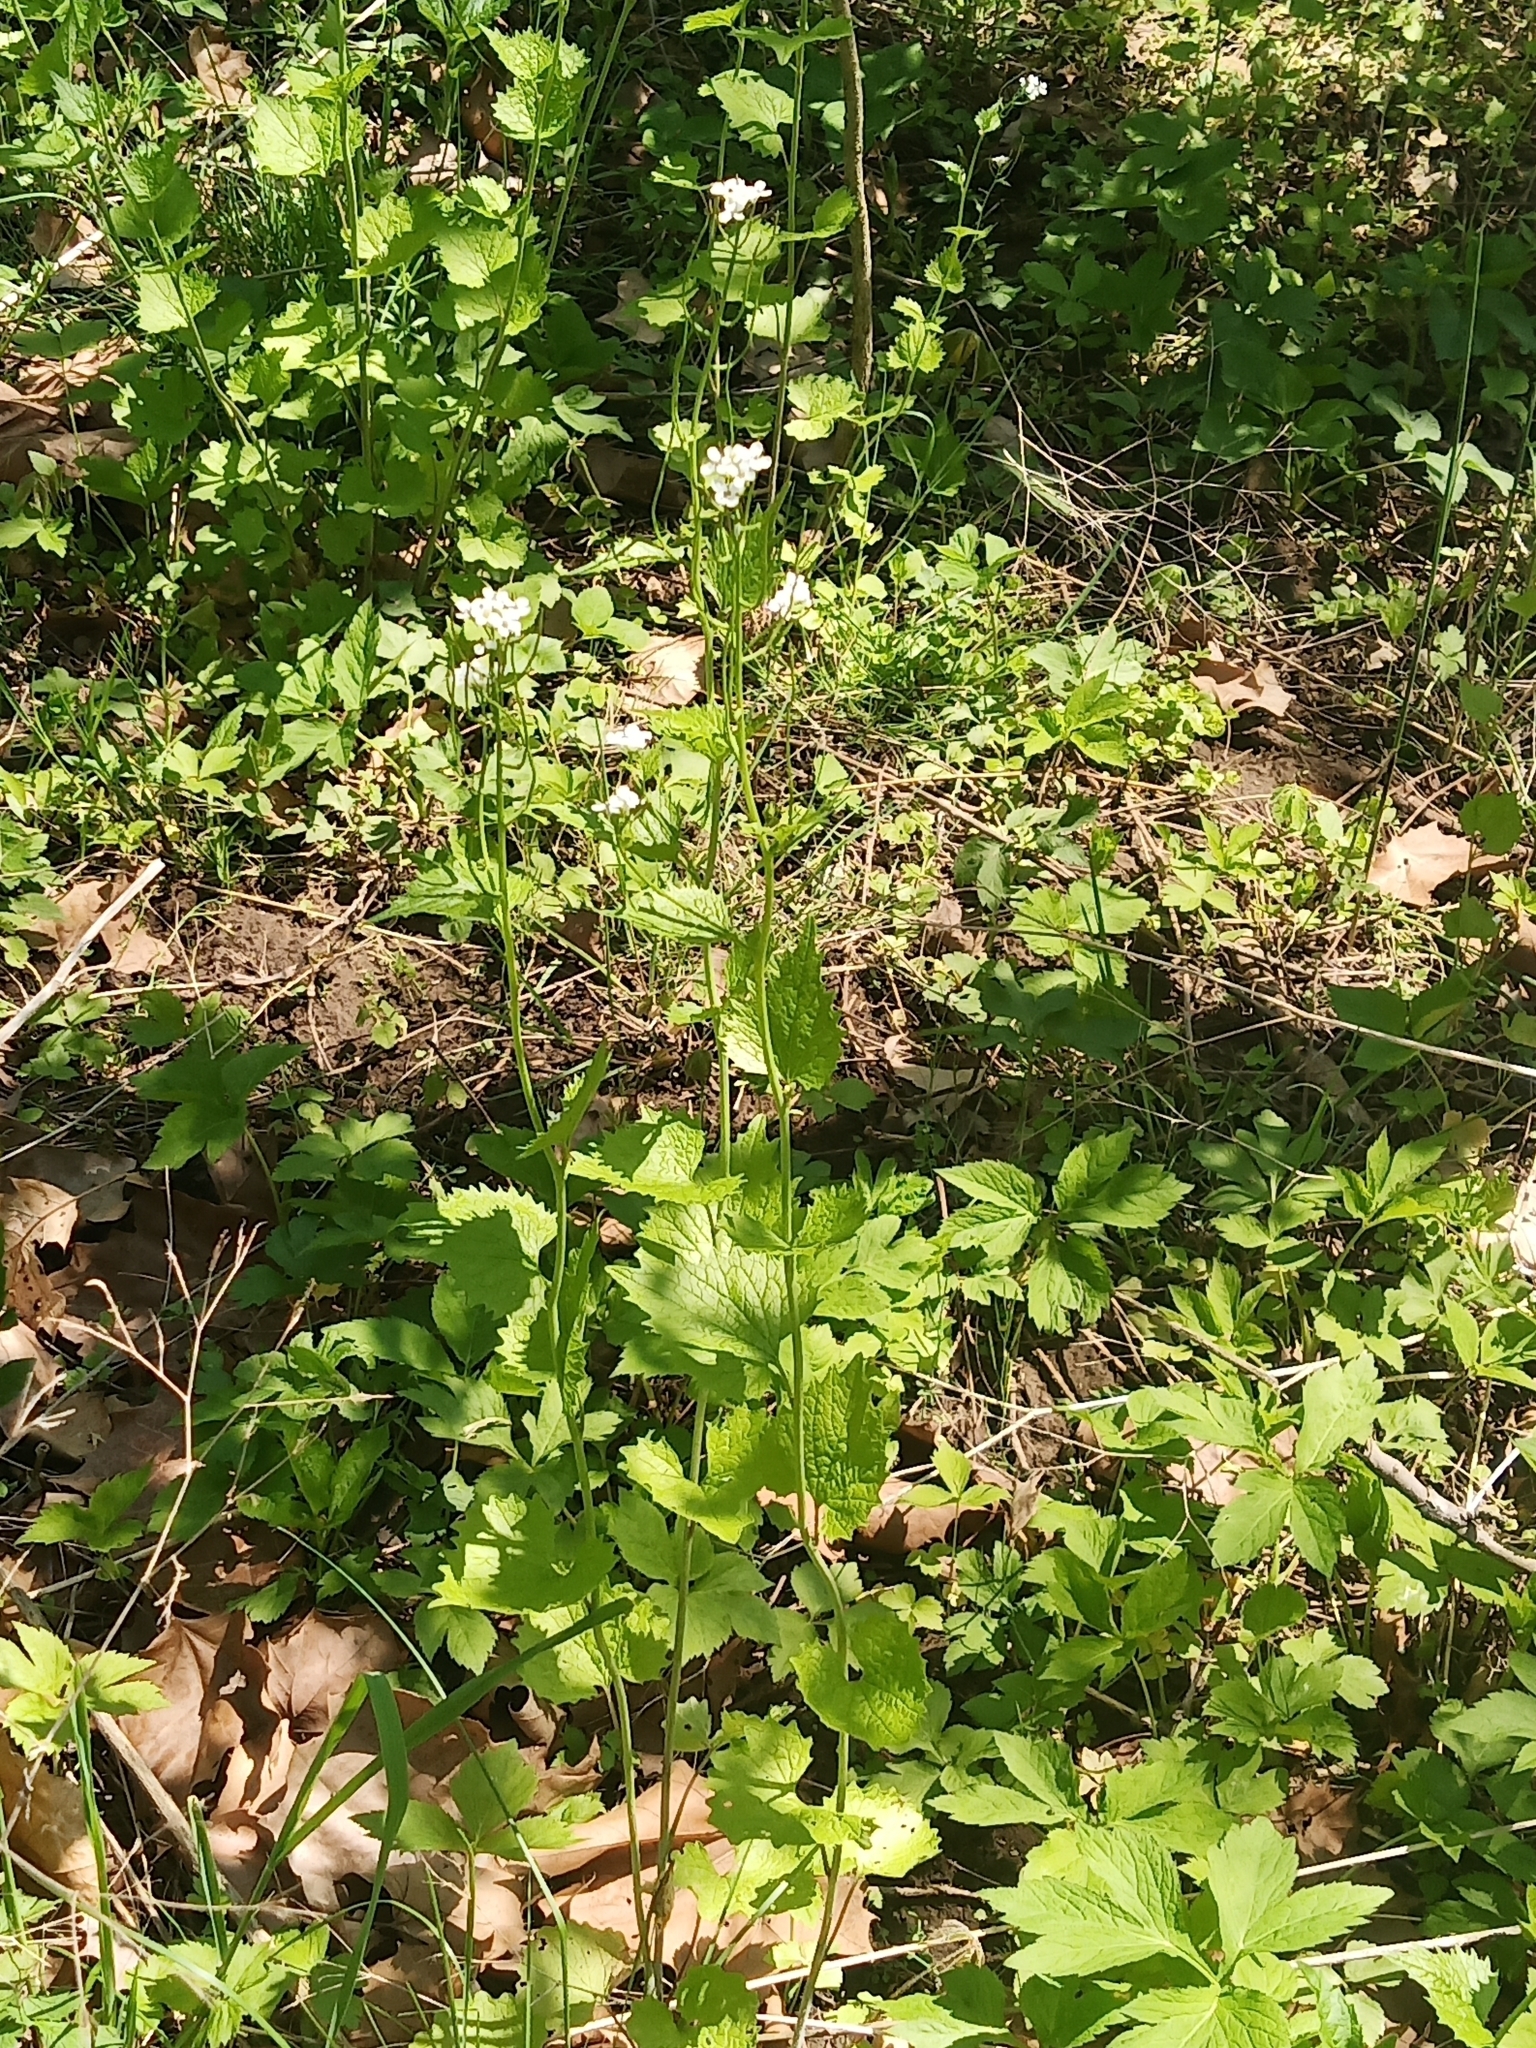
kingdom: Plantae
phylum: Tracheophyta
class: Magnoliopsida
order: Brassicales
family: Brassicaceae
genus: Alliaria
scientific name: Alliaria petiolata
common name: Garlic mustard
